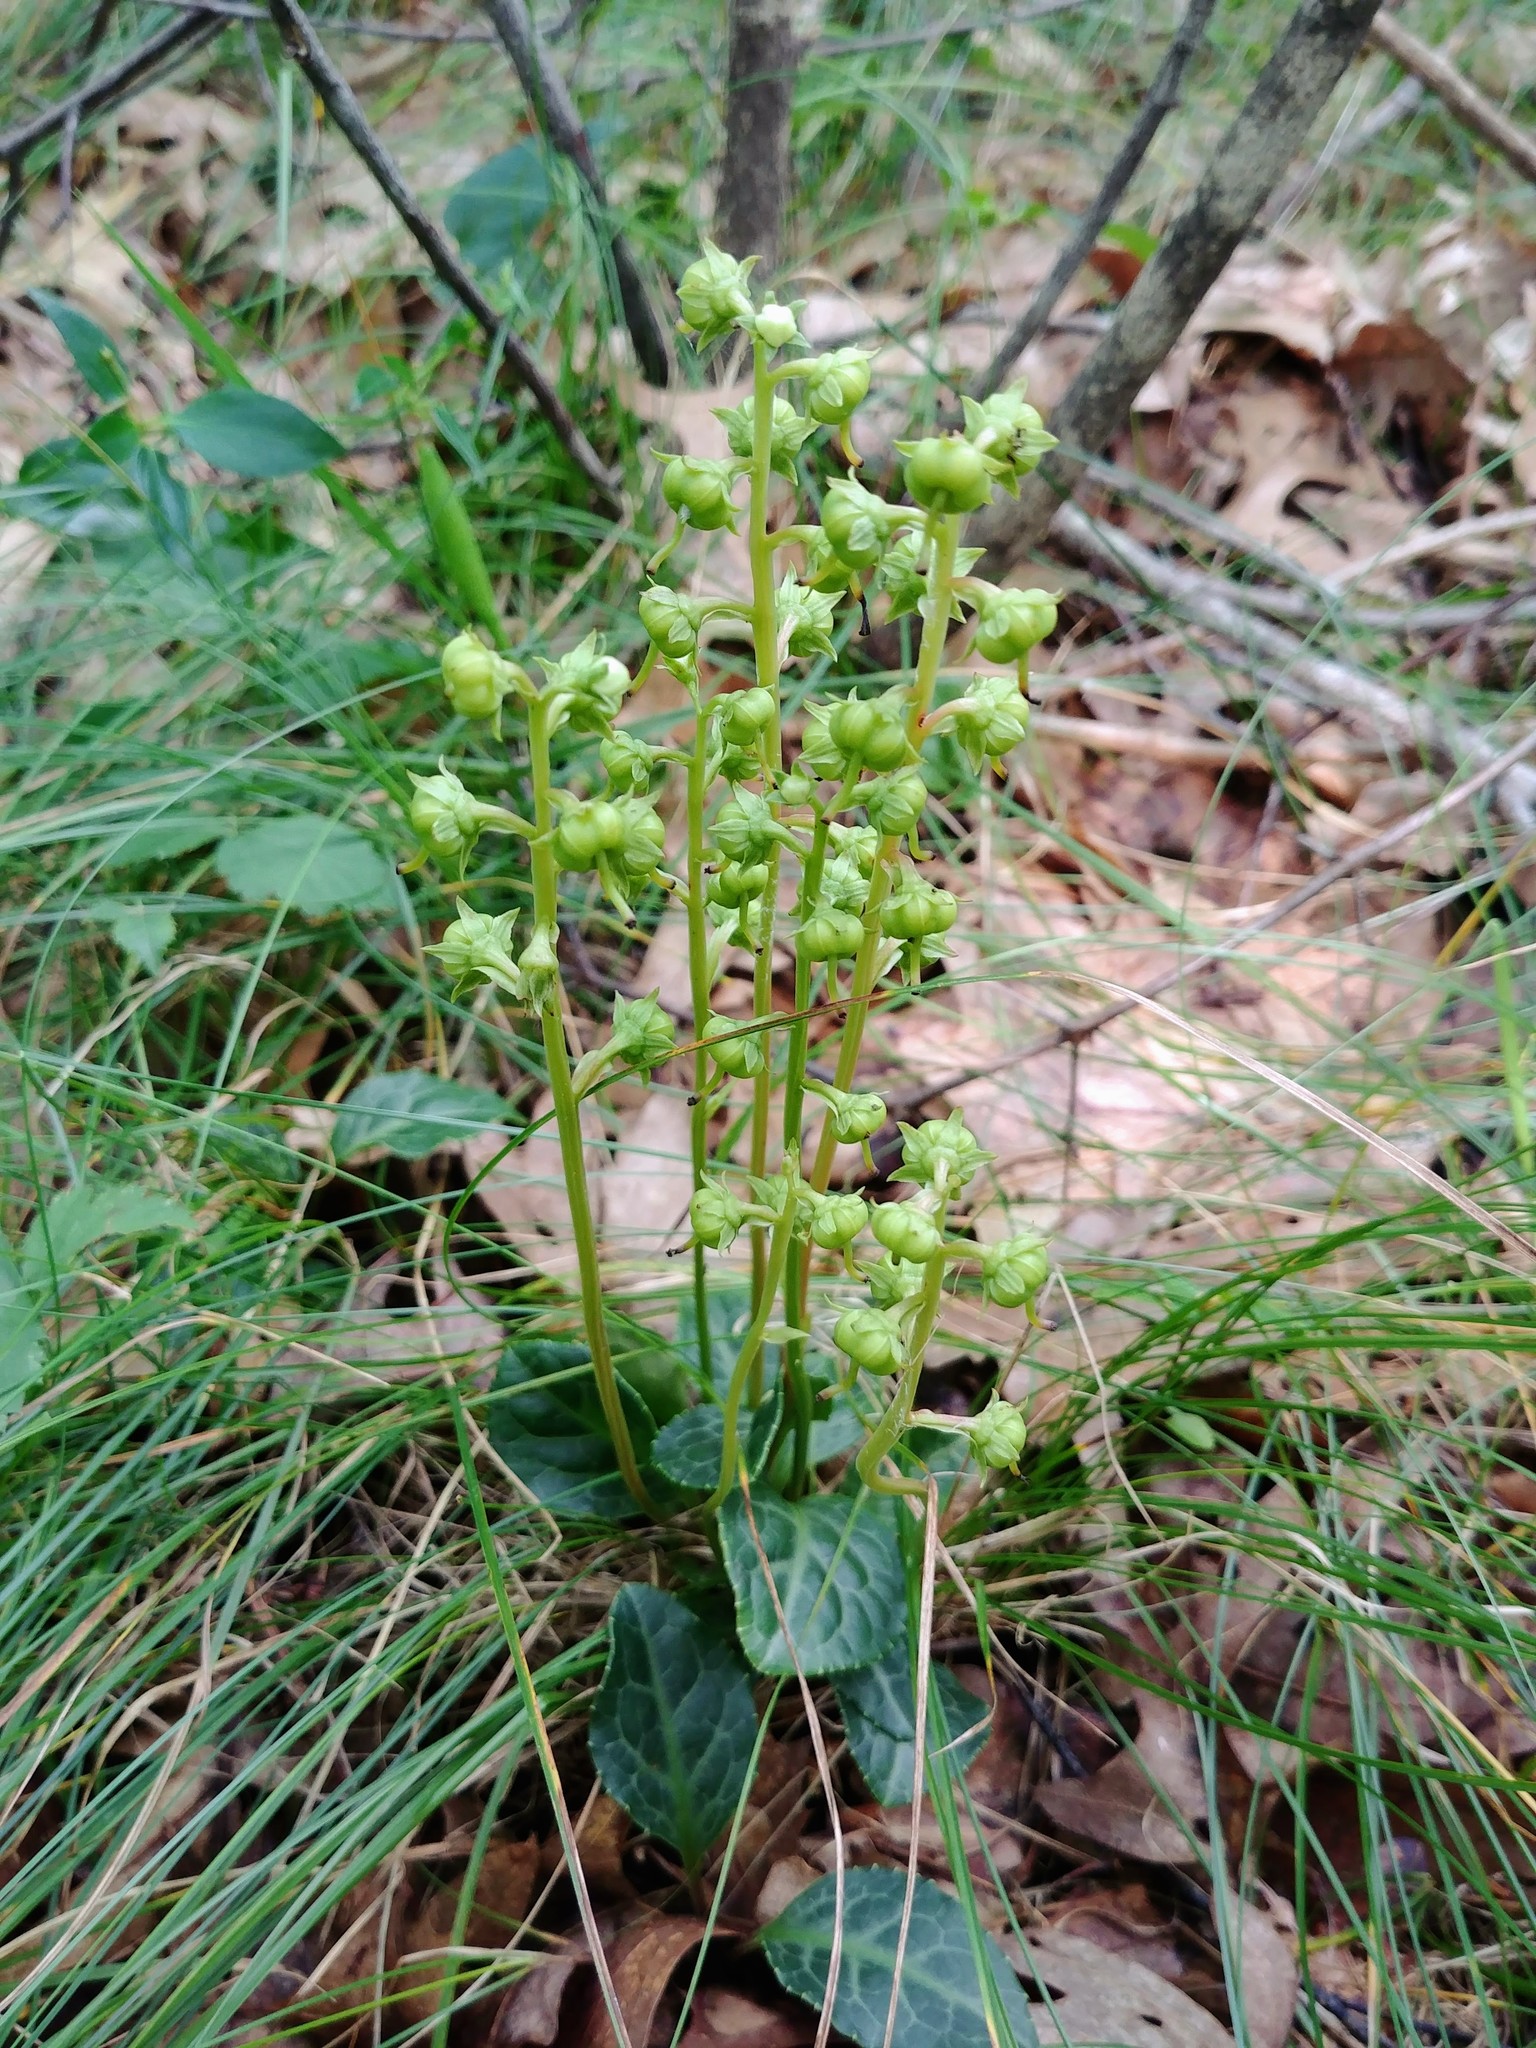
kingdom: Plantae
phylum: Tracheophyta
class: Magnoliopsida
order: Ericales
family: Ericaceae
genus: Pyrola
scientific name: Pyrola americana
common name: American wintergreen
